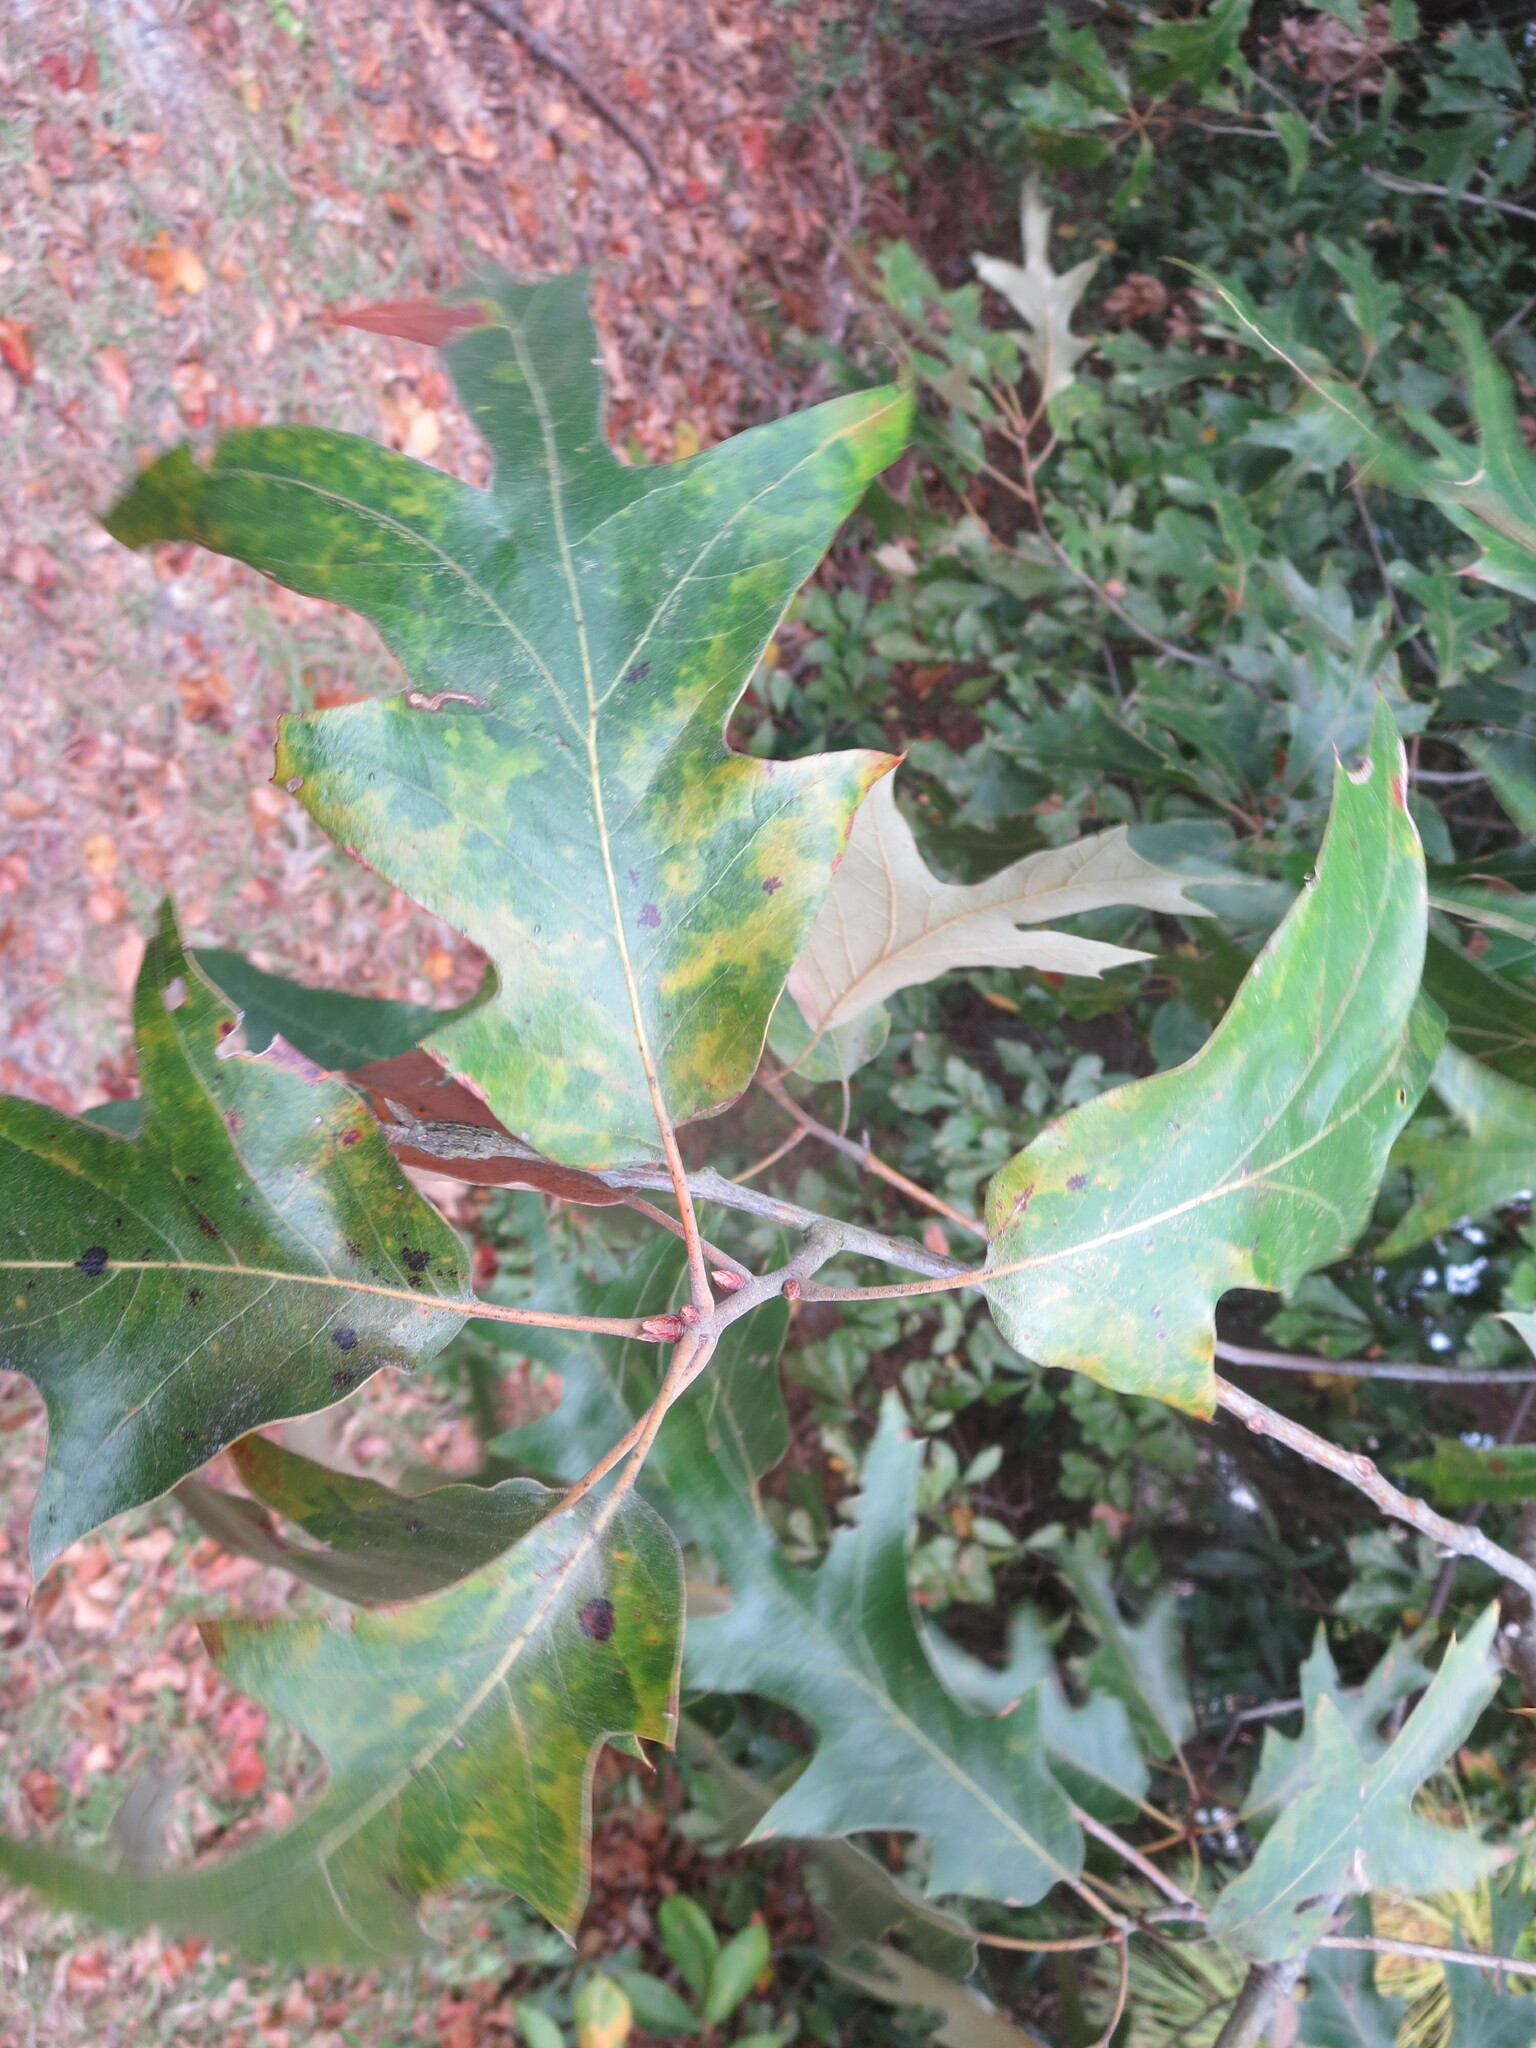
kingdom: Plantae
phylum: Tracheophyta
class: Magnoliopsida
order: Fagales
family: Fagaceae
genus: Quercus
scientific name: Quercus falcata
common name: Southern red oak
